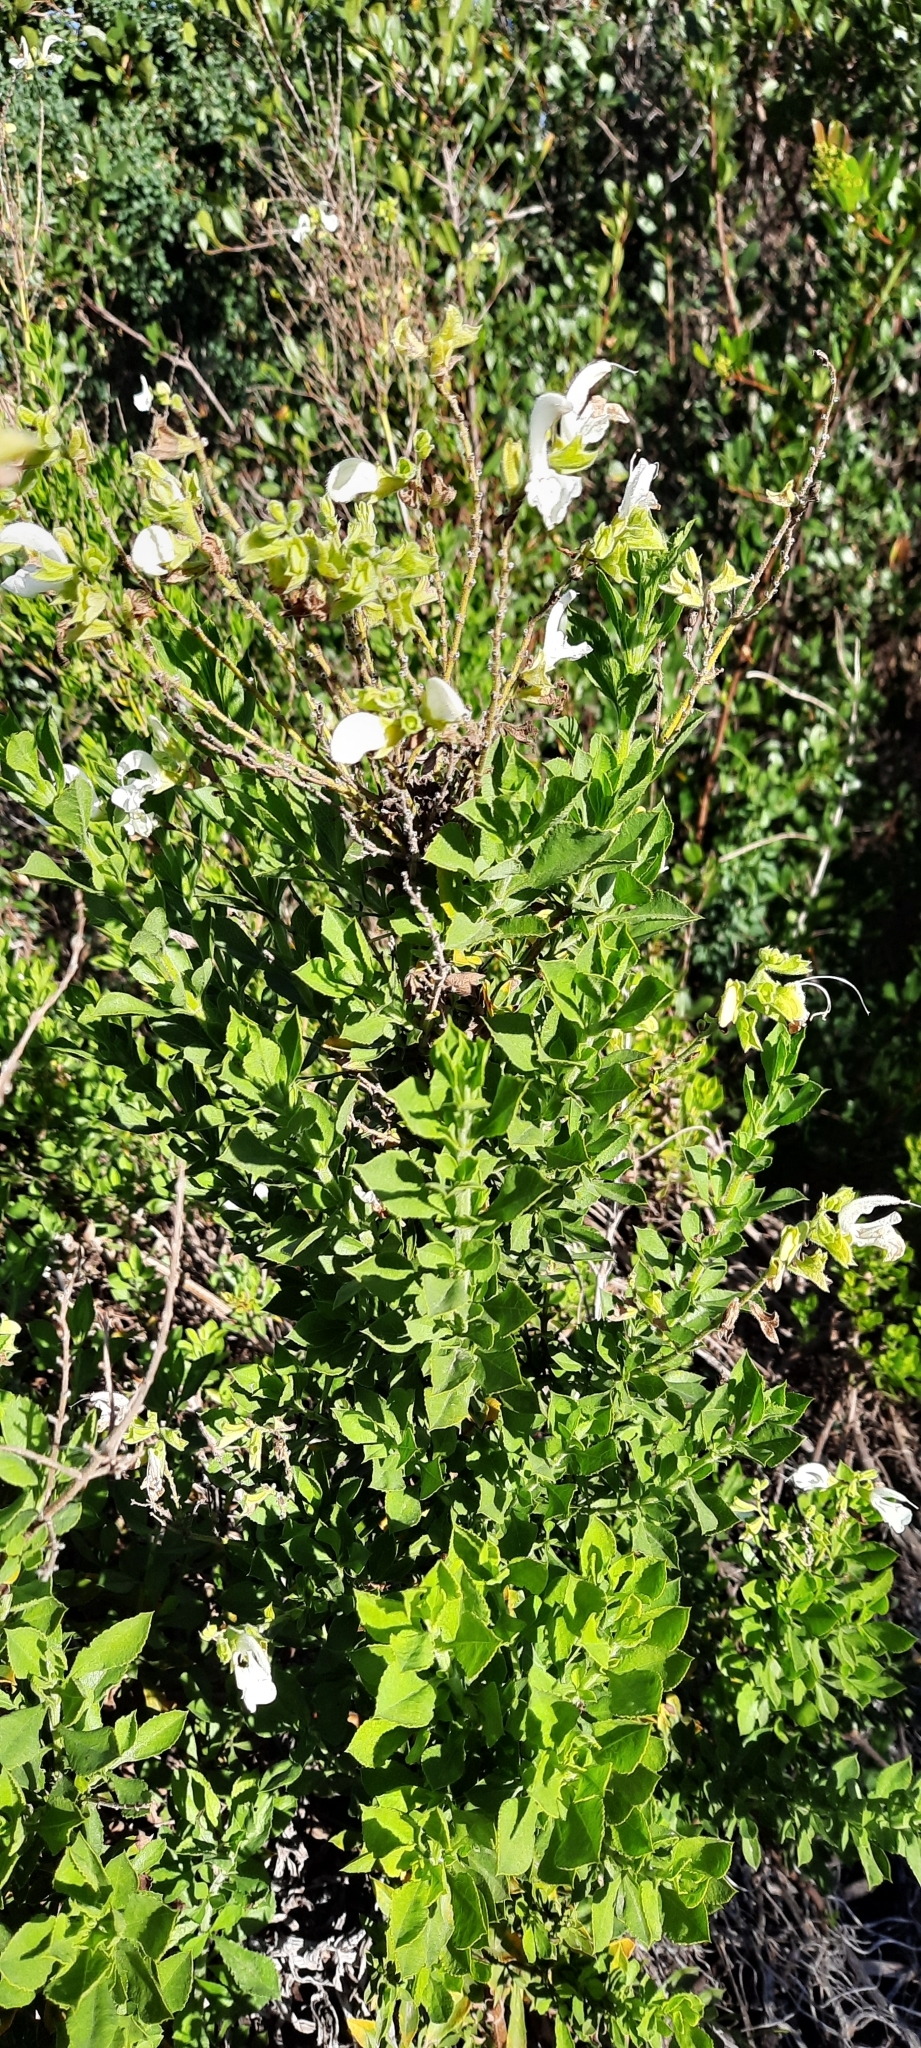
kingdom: Plantae
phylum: Tracheophyta
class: Magnoliopsida
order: Lamiales
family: Lamiaceae
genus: Salvia
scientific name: Salvia chamelaeagnea
